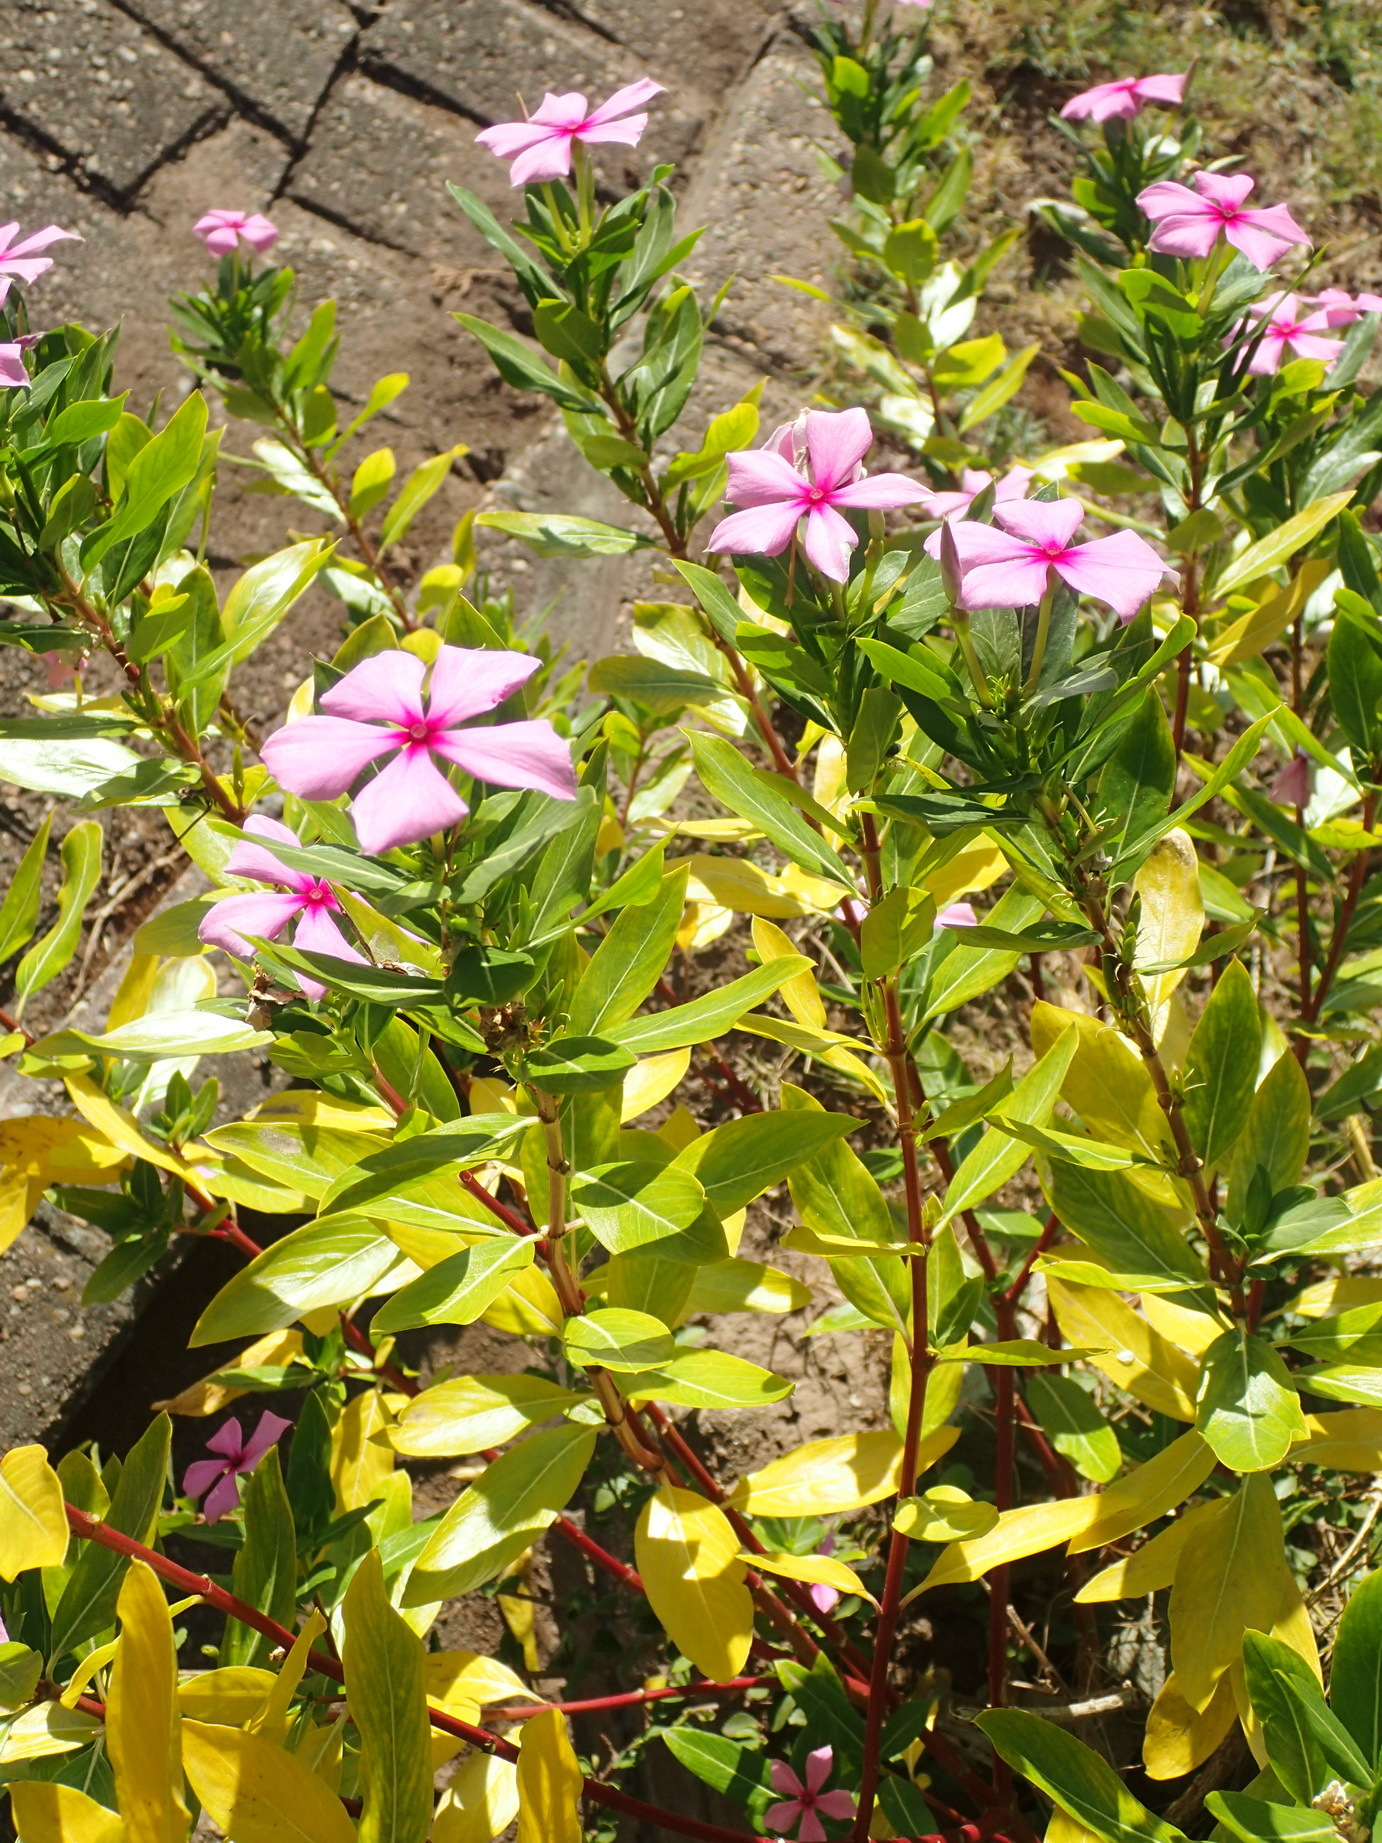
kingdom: Plantae
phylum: Tracheophyta
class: Magnoliopsida
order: Gentianales
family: Apocynaceae
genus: Catharanthus
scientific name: Catharanthus roseus
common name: Madagascar periwinkle
